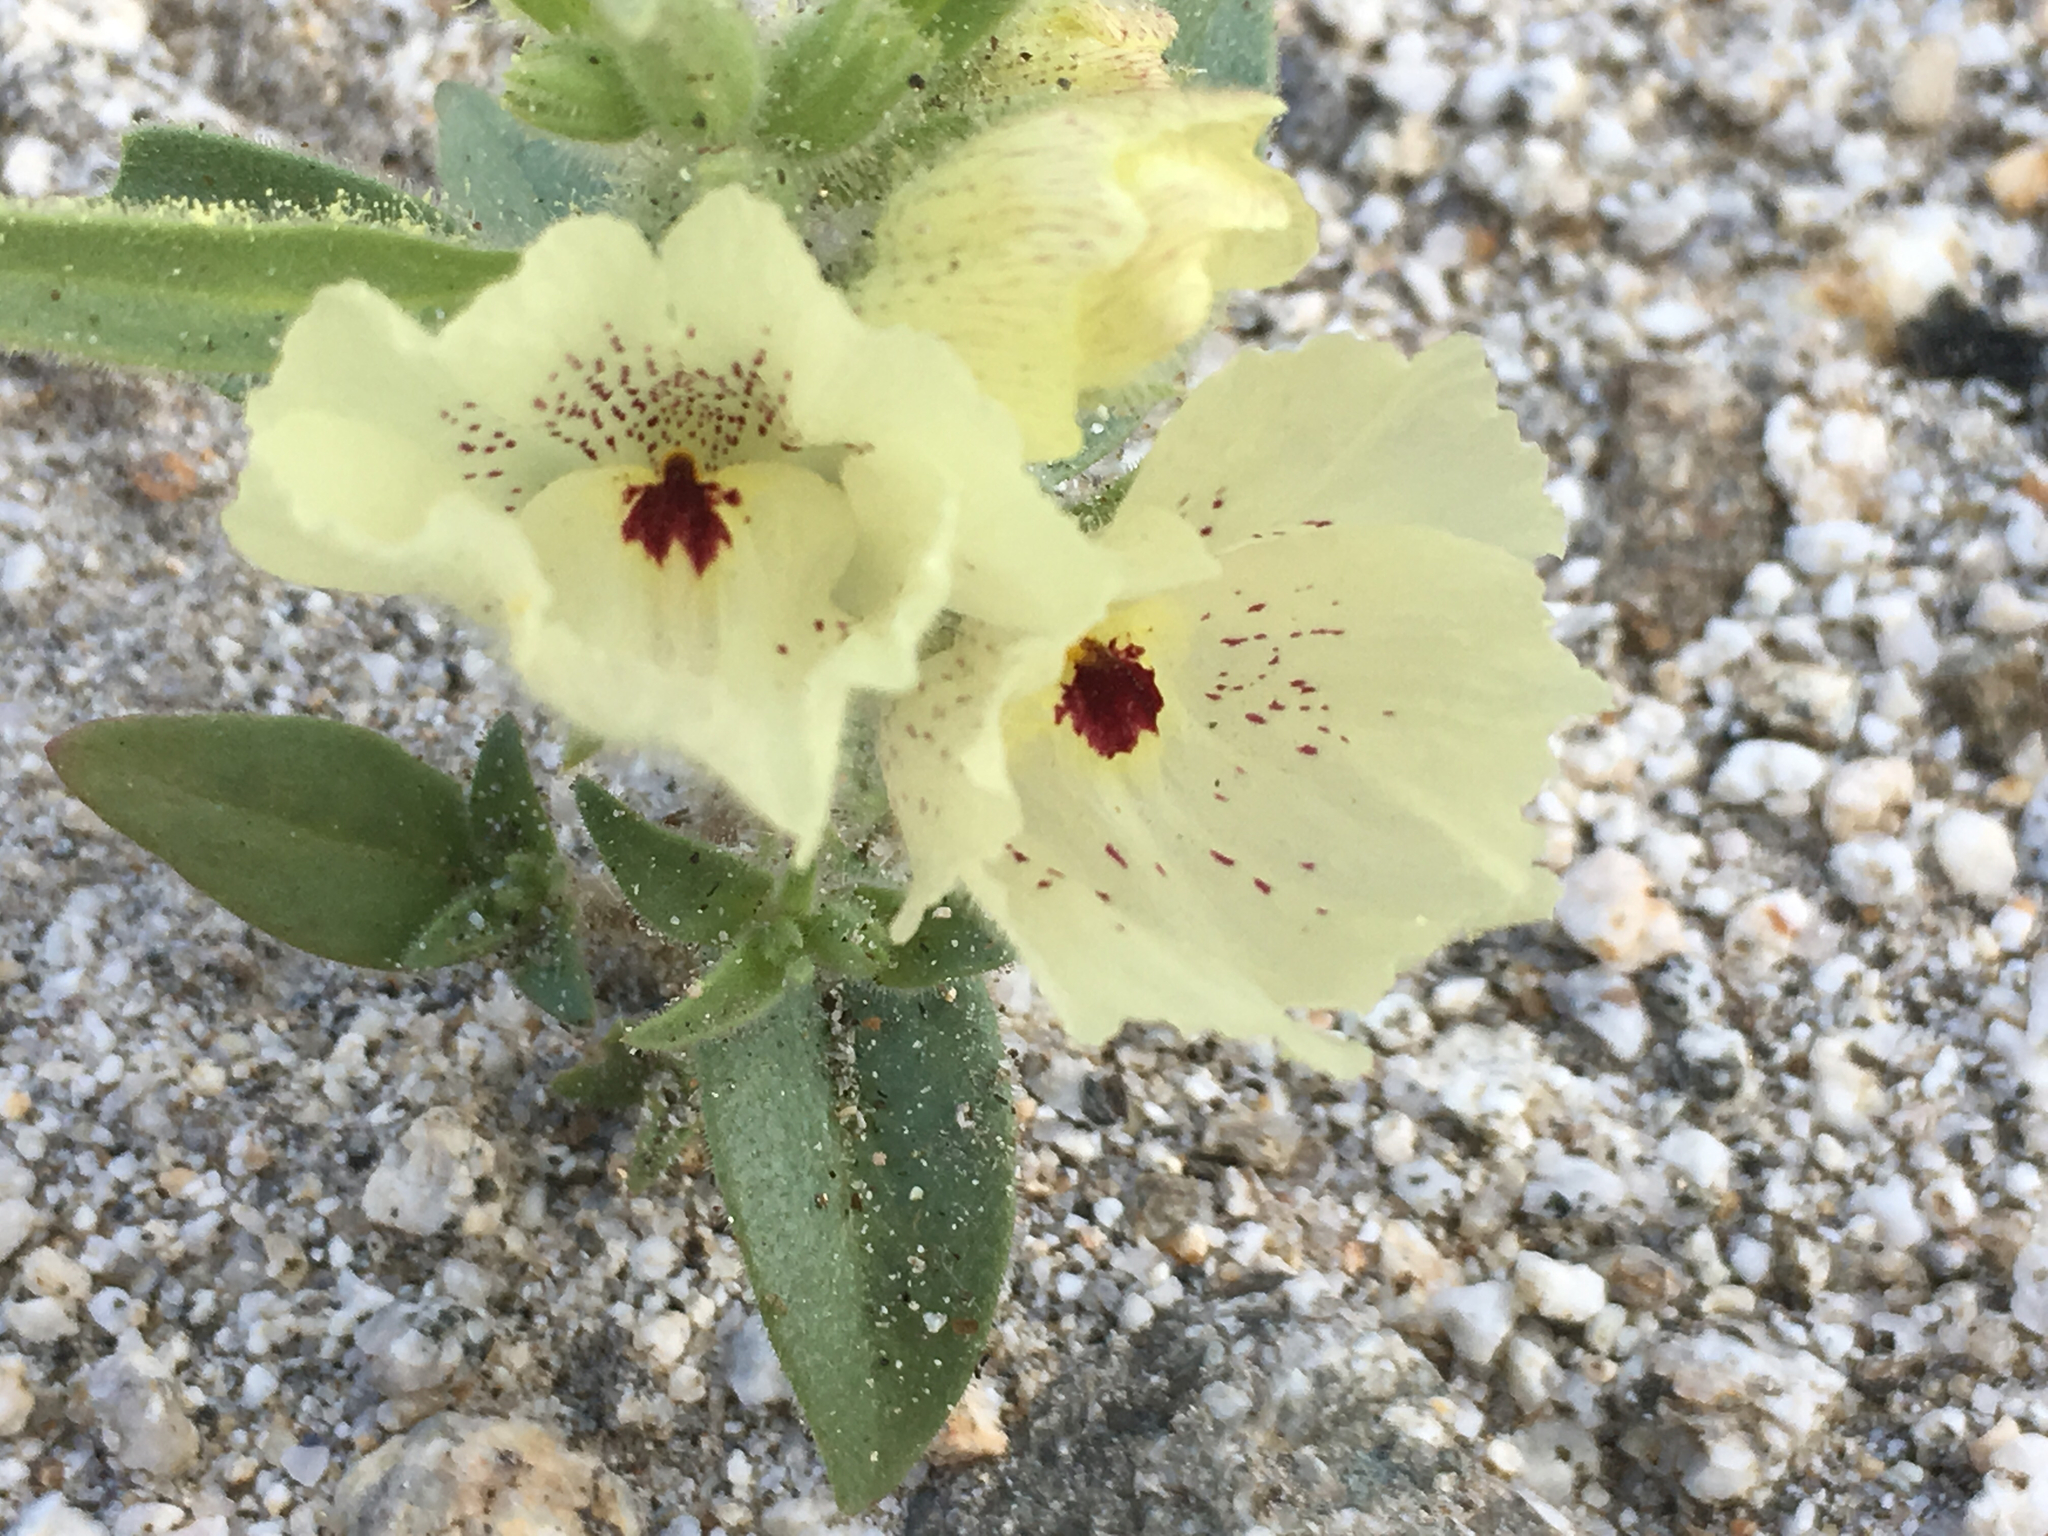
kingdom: Plantae
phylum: Tracheophyta
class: Magnoliopsida
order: Lamiales
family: Plantaginaceae
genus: Mohavea
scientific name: Mohavea confertiflora
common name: Ghost flower
